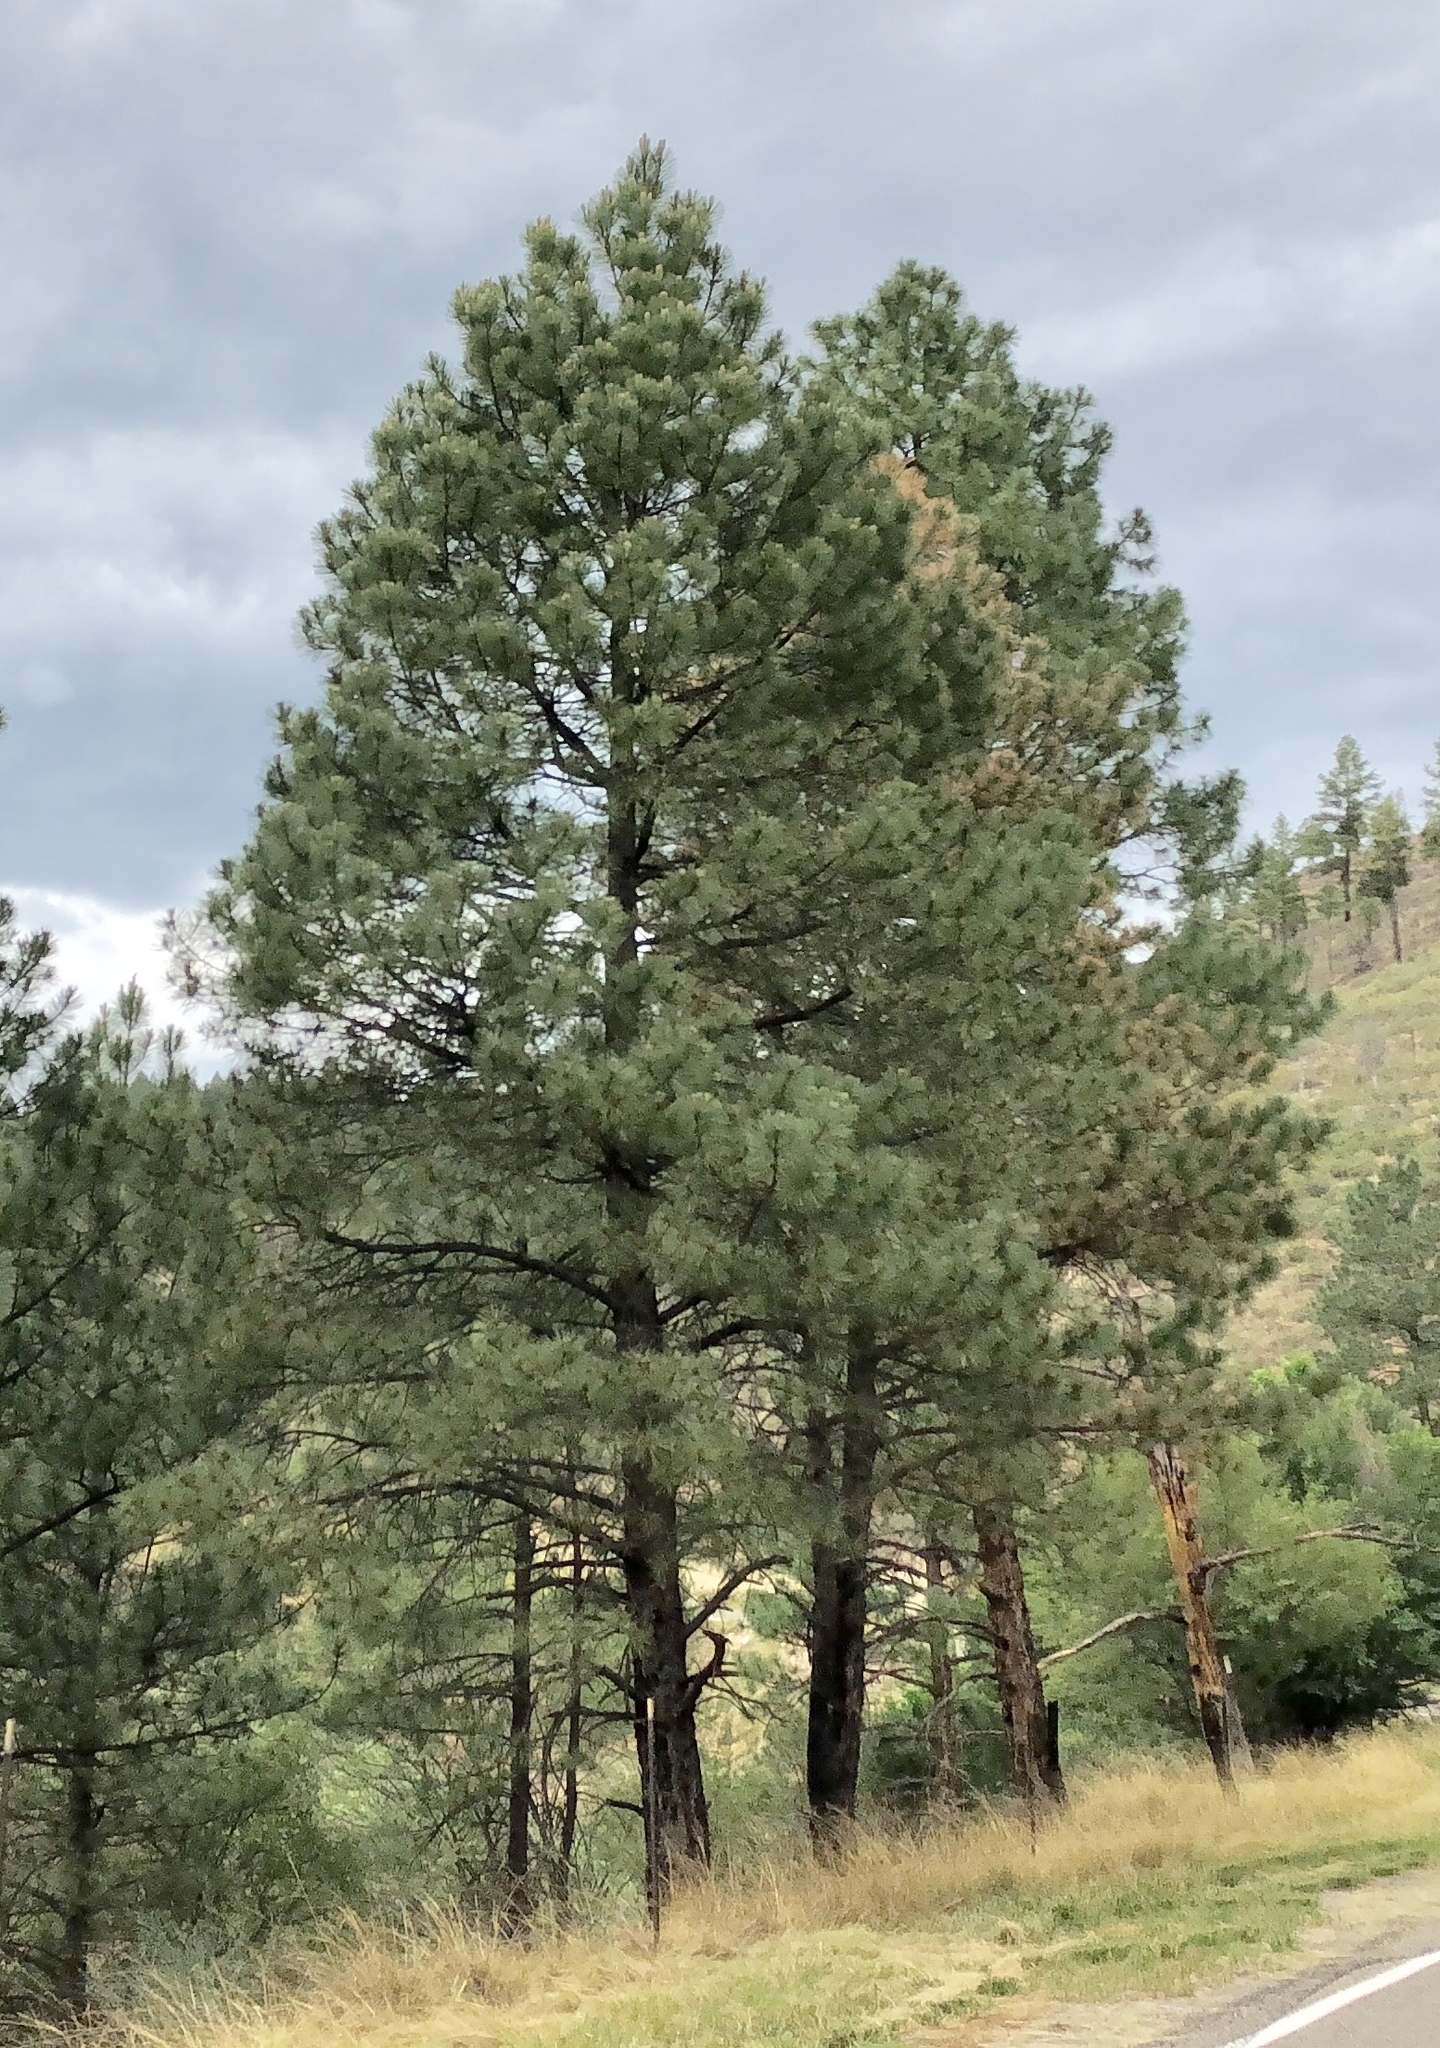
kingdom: Plantae
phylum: Tracheophyta
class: Pinopsida
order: Pinales
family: Pinaceae
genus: Pinus
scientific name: Pinus ponderosa
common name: Western yellow-pine
